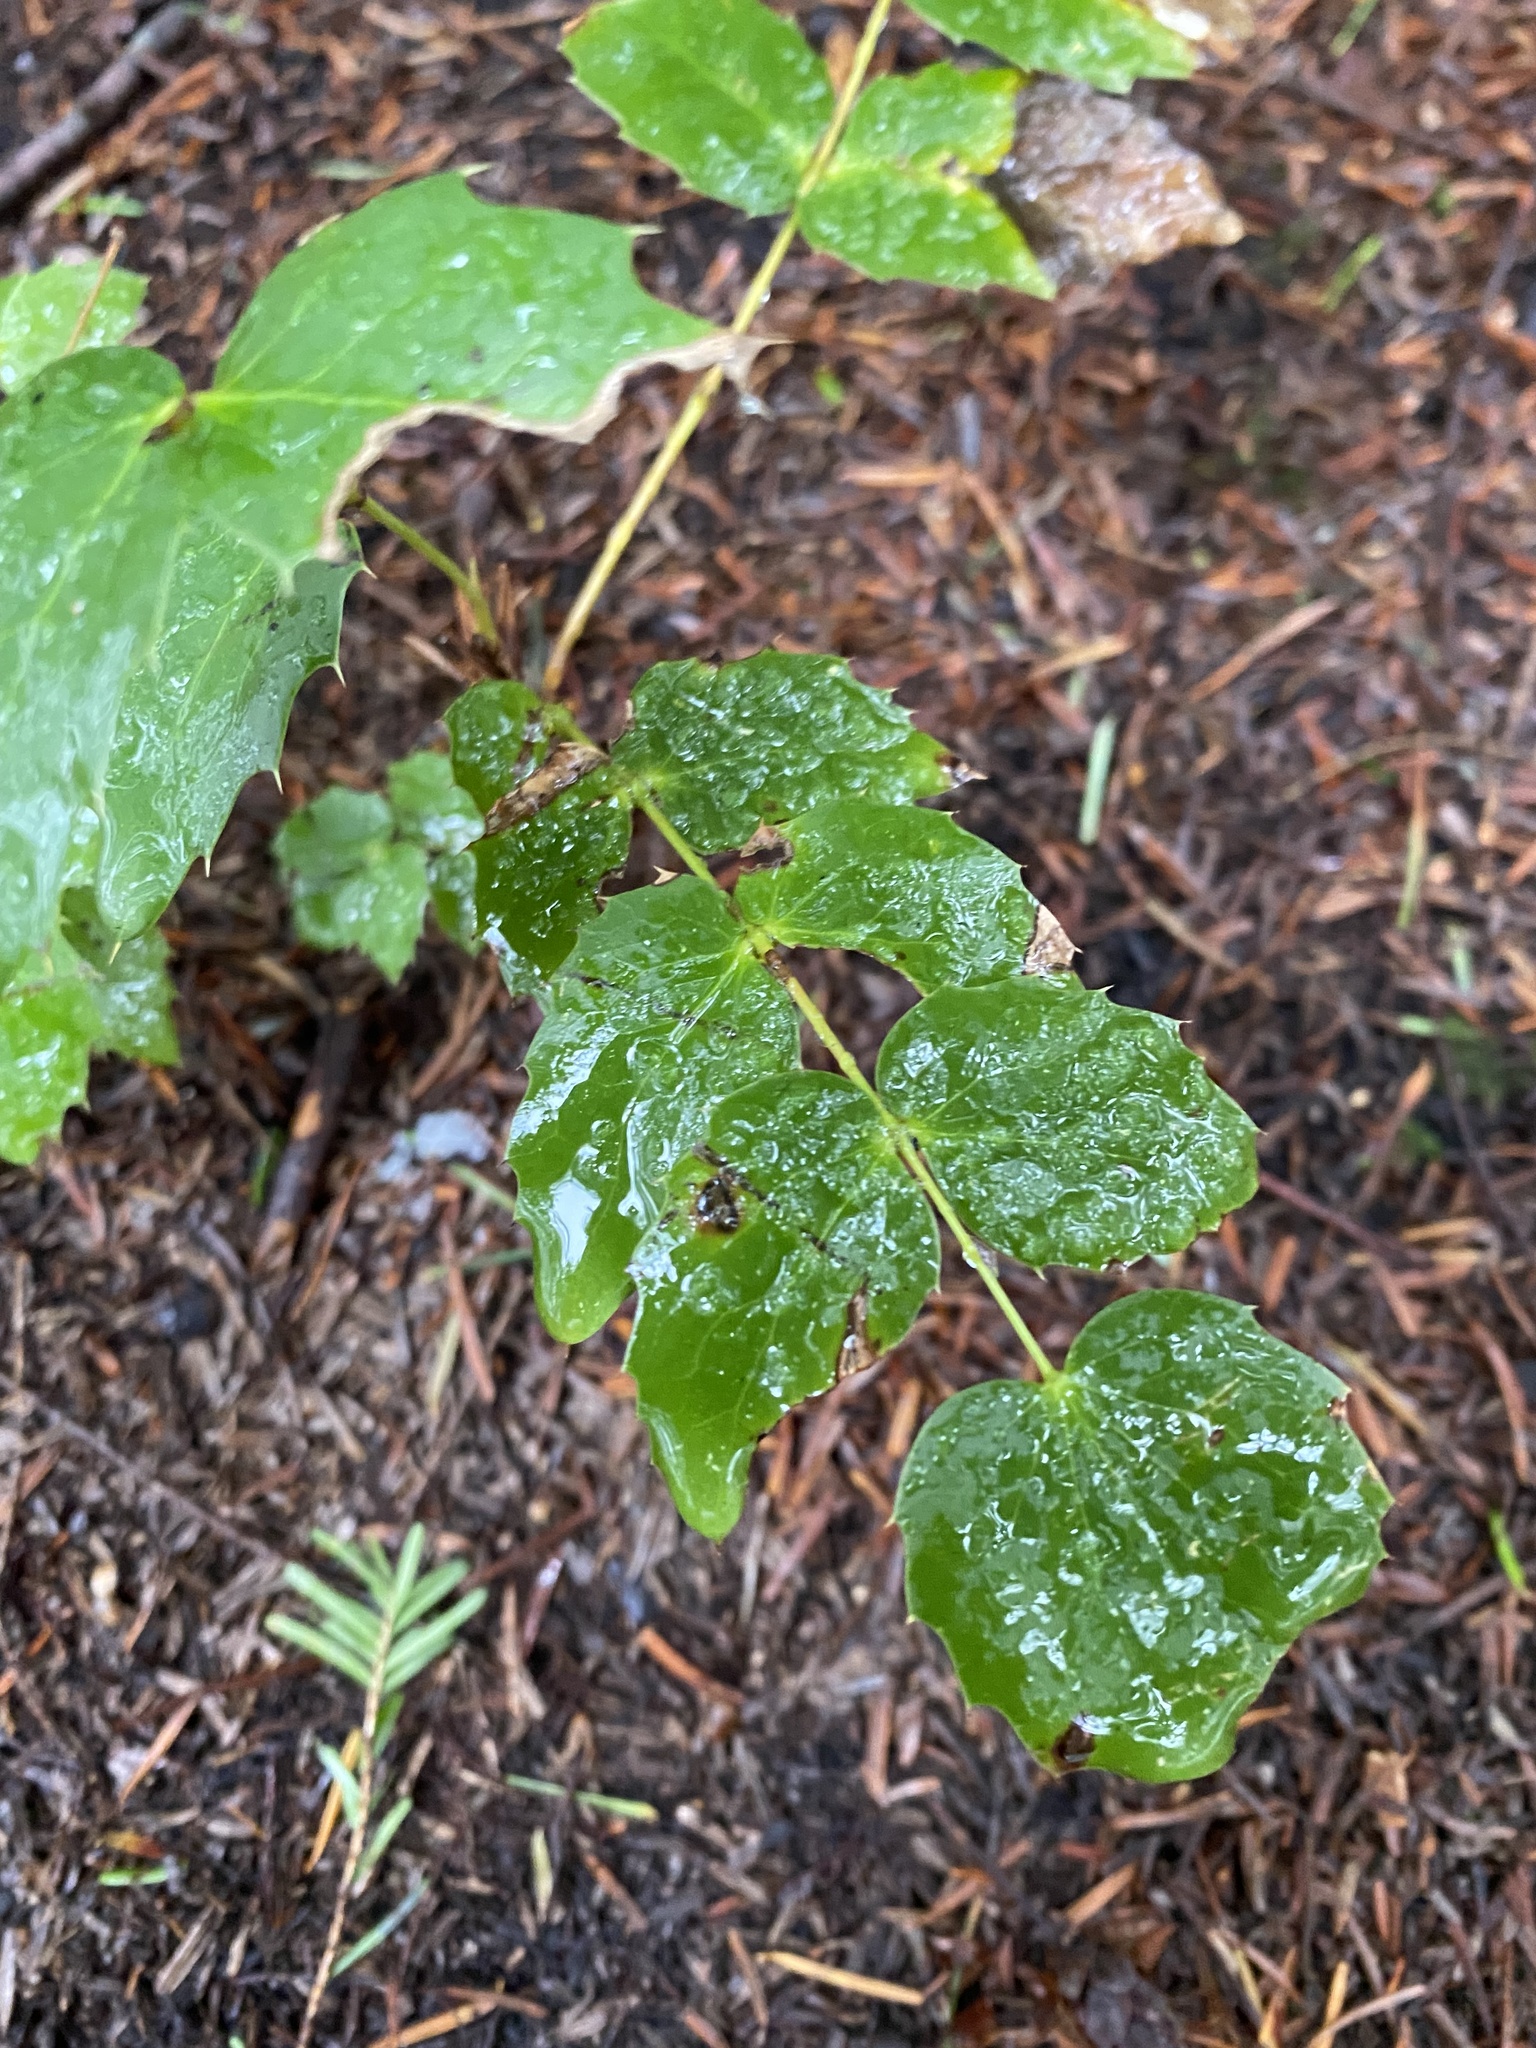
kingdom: Plantae
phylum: Tracheophyta
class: Magnoliopsida
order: Ranunculales
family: Berberidaceae
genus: Mahonia
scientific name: Mahonia nervosa
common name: Cascade oregon-grape
